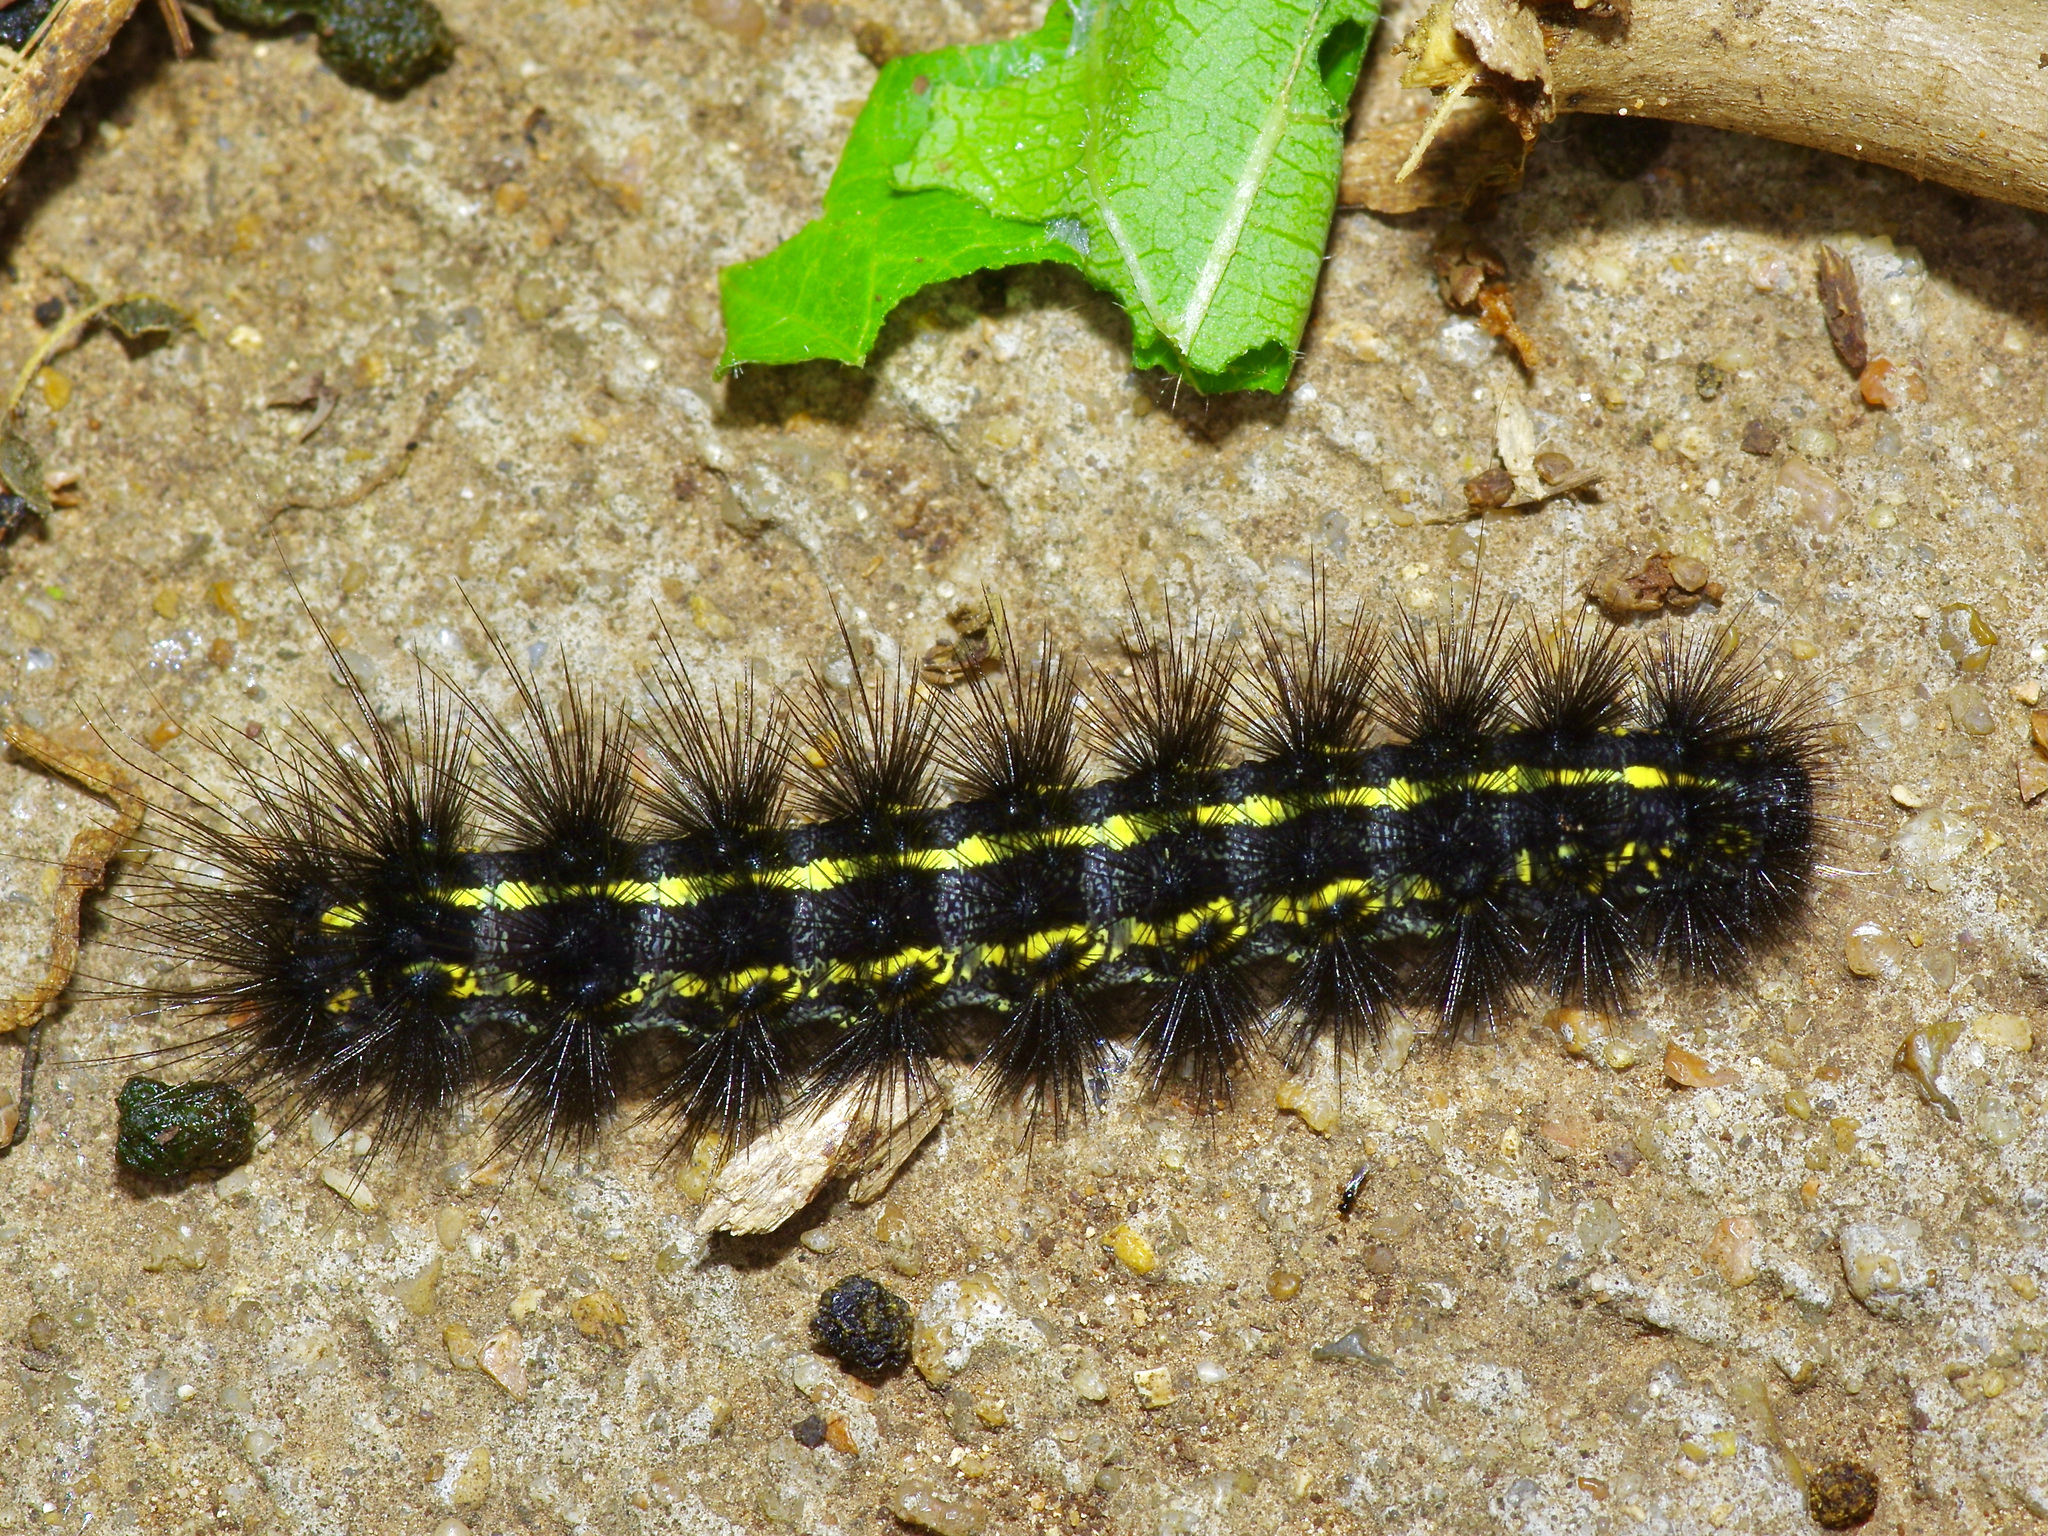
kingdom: Animalia
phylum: Arthropoda
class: Insecta
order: Lepidoptera
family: Erebidae
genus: Spilosoma
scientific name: Spilosoma dubia
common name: Dubious tiger moth
